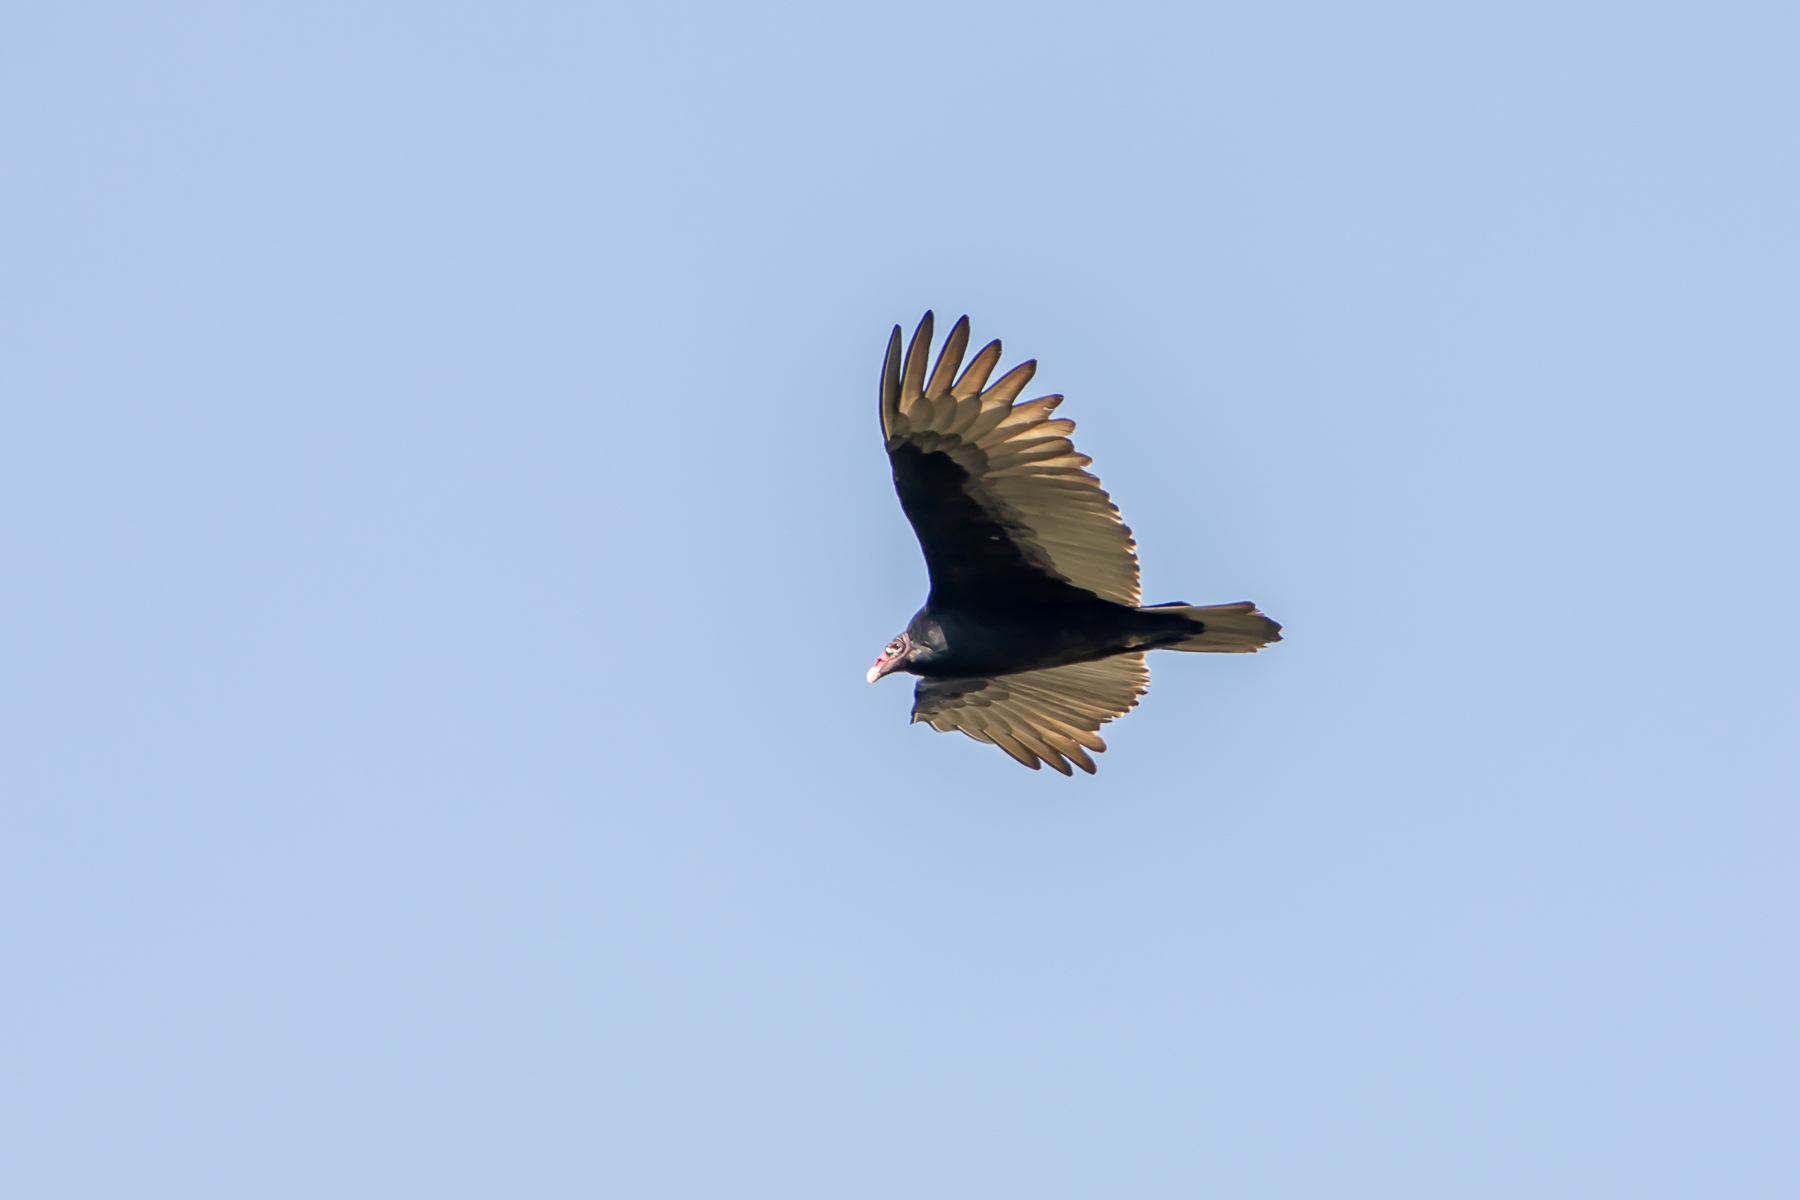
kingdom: Animalia
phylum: Chordata
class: Aves
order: Accipitriformes
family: Cathartidae
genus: Cathartes
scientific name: Cathartes aura
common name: Turkey vulture
